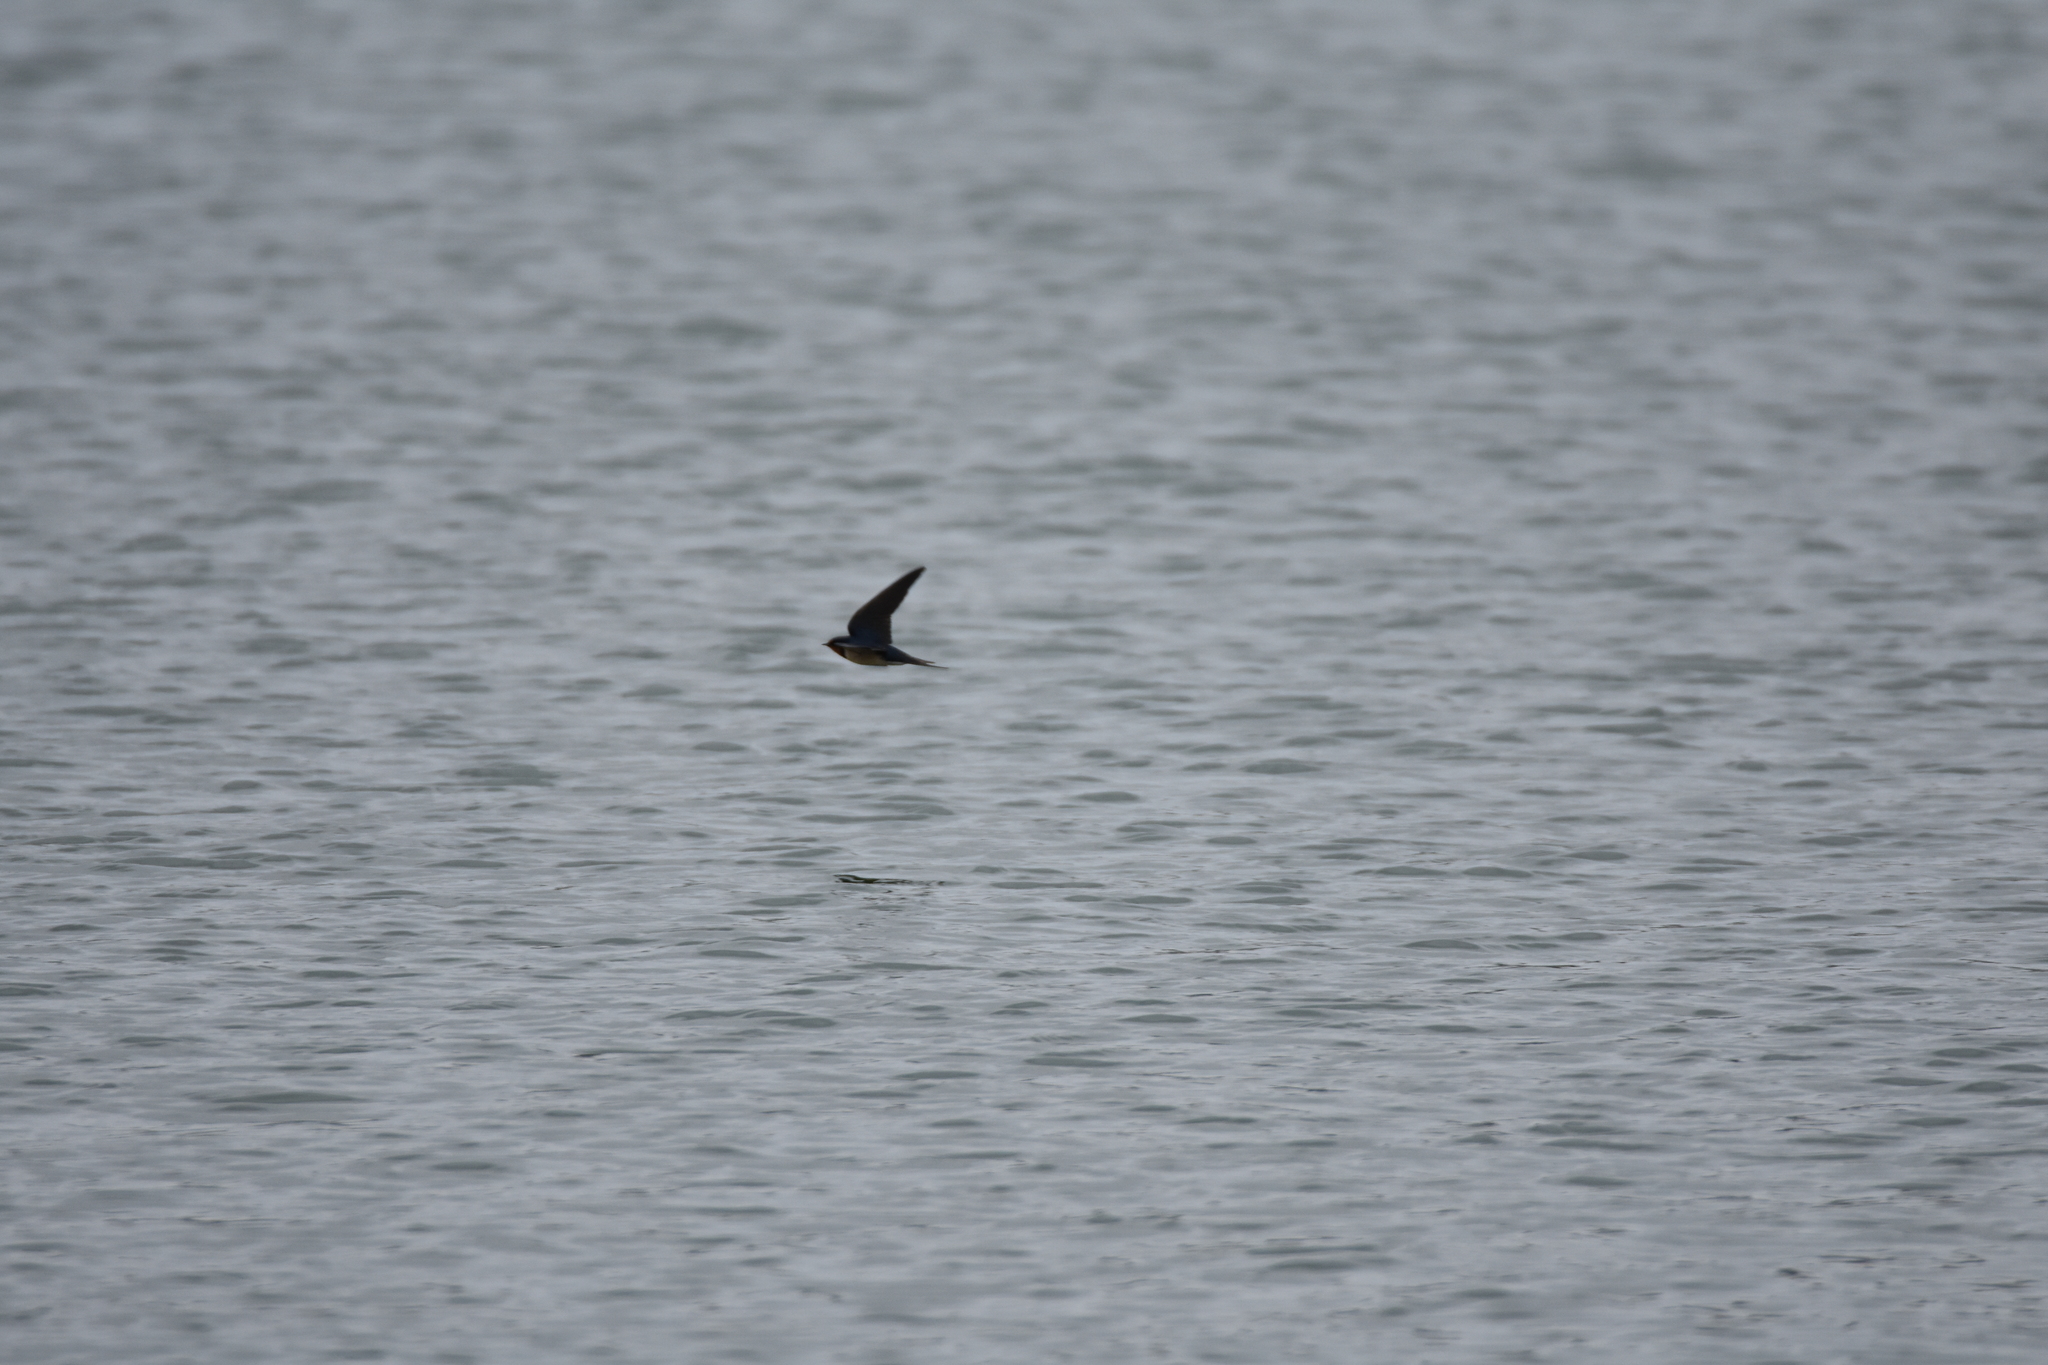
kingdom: Animalia
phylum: Chordata
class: Aves
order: Passeriformes
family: Hirundinidae
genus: Hirundo
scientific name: Hirundo rustica
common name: Barn swallow
